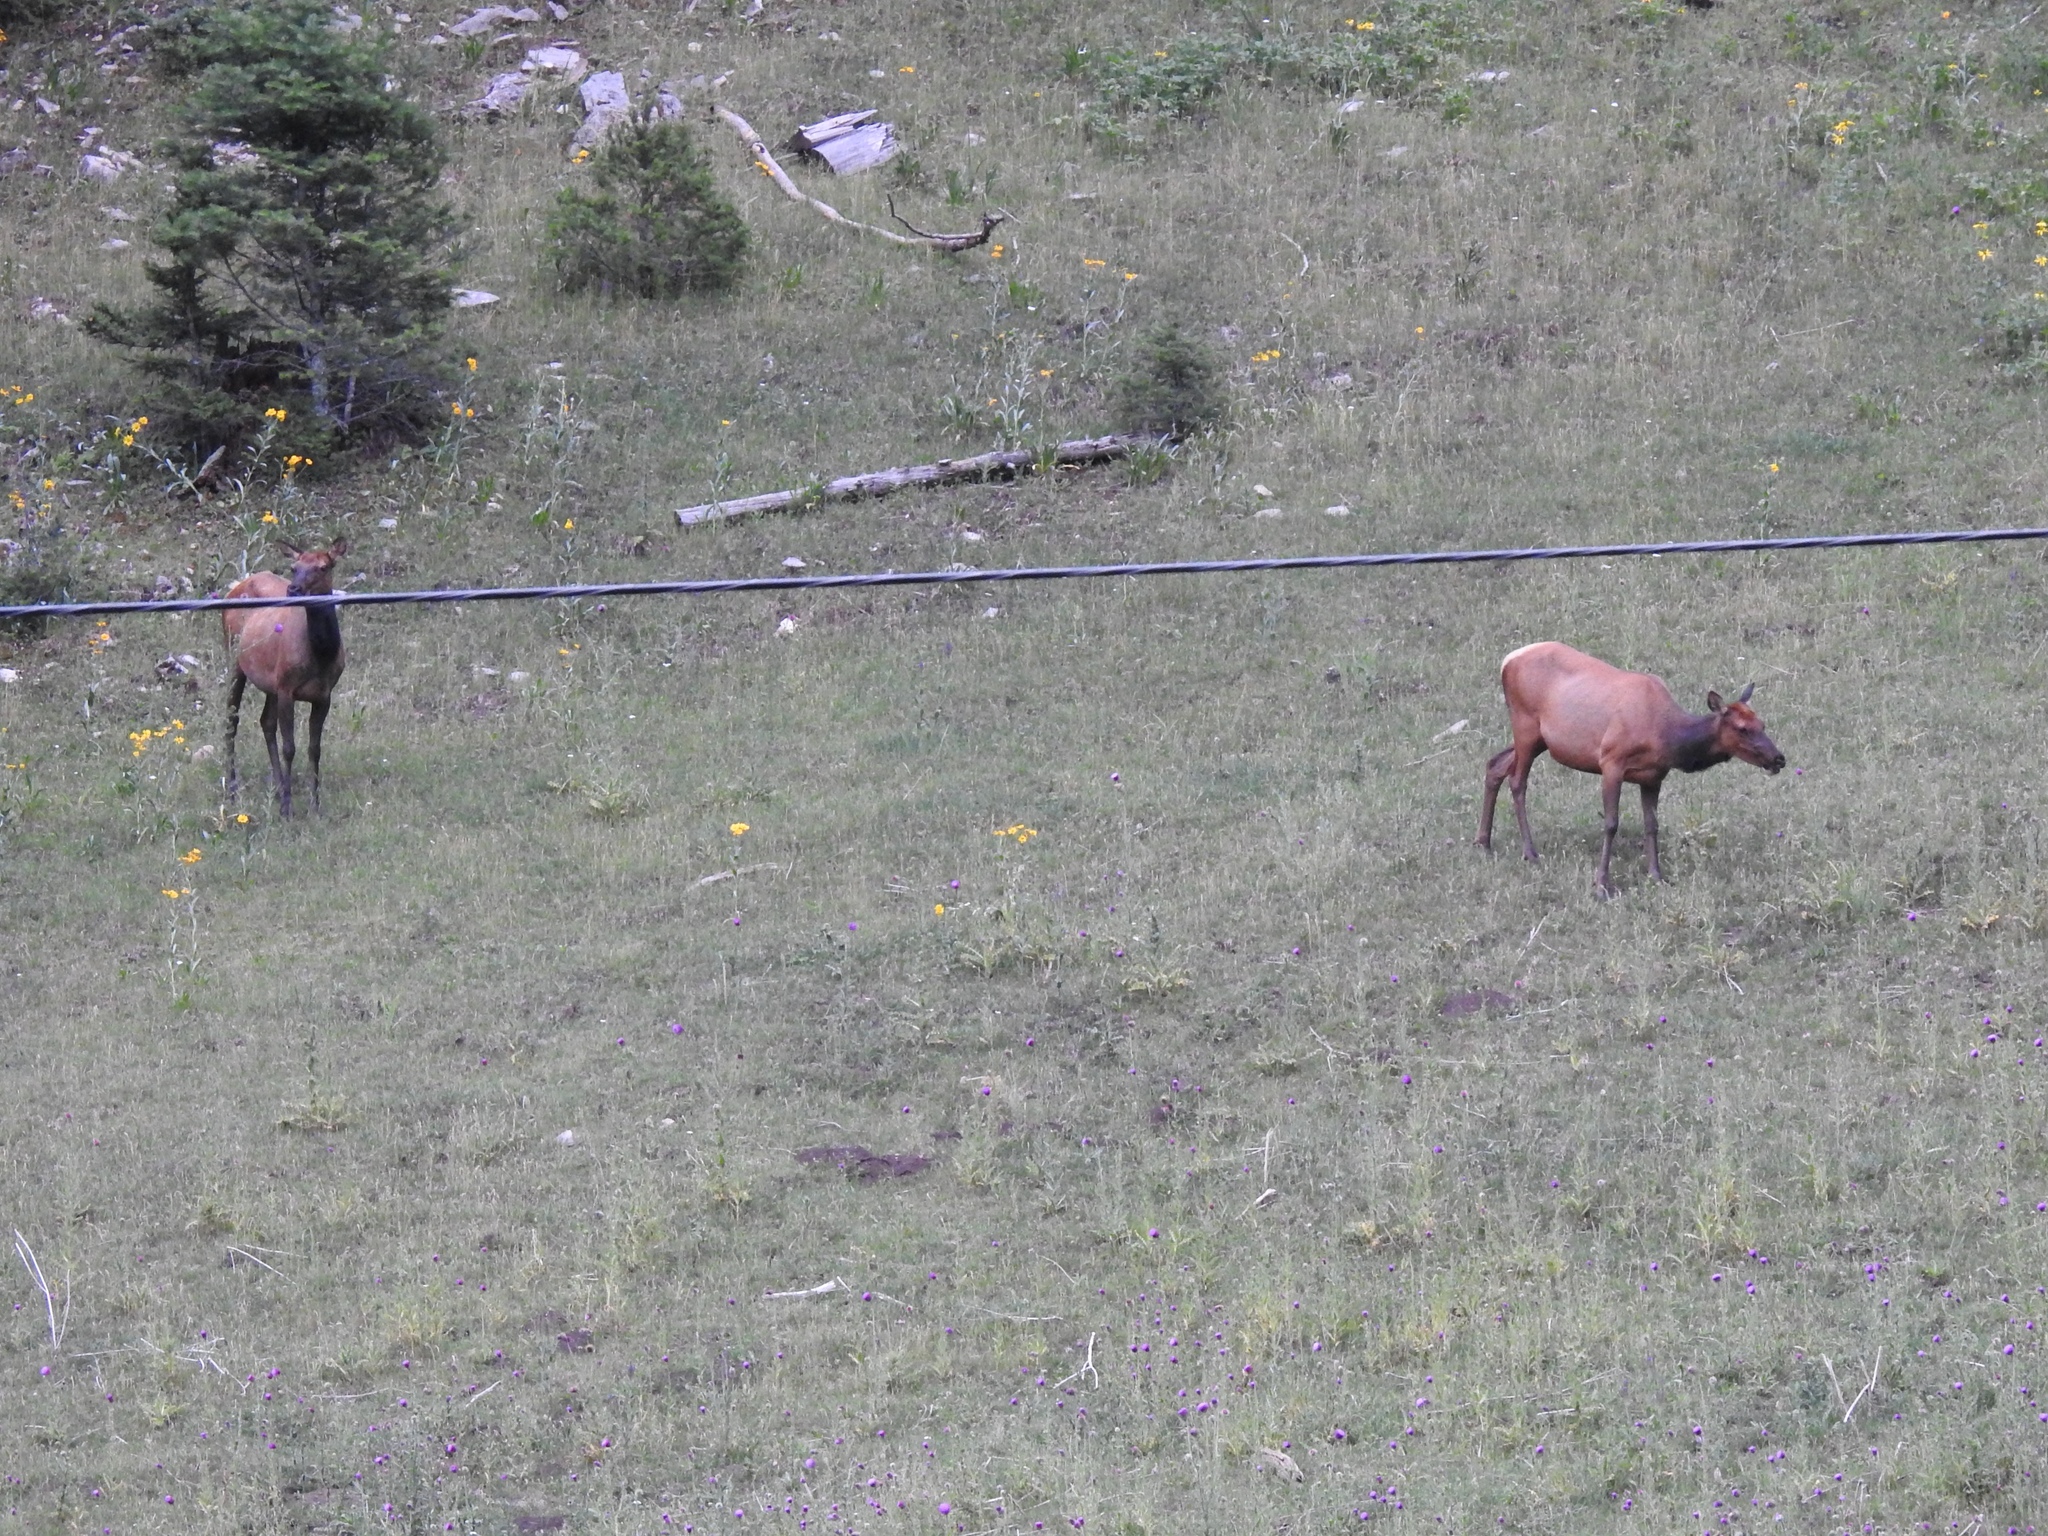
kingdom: Animalia
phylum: Chordata
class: Mammalia
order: Artiodactyla
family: Cervidae
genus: Cervus
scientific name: Cervus elaphus
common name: Red deer
